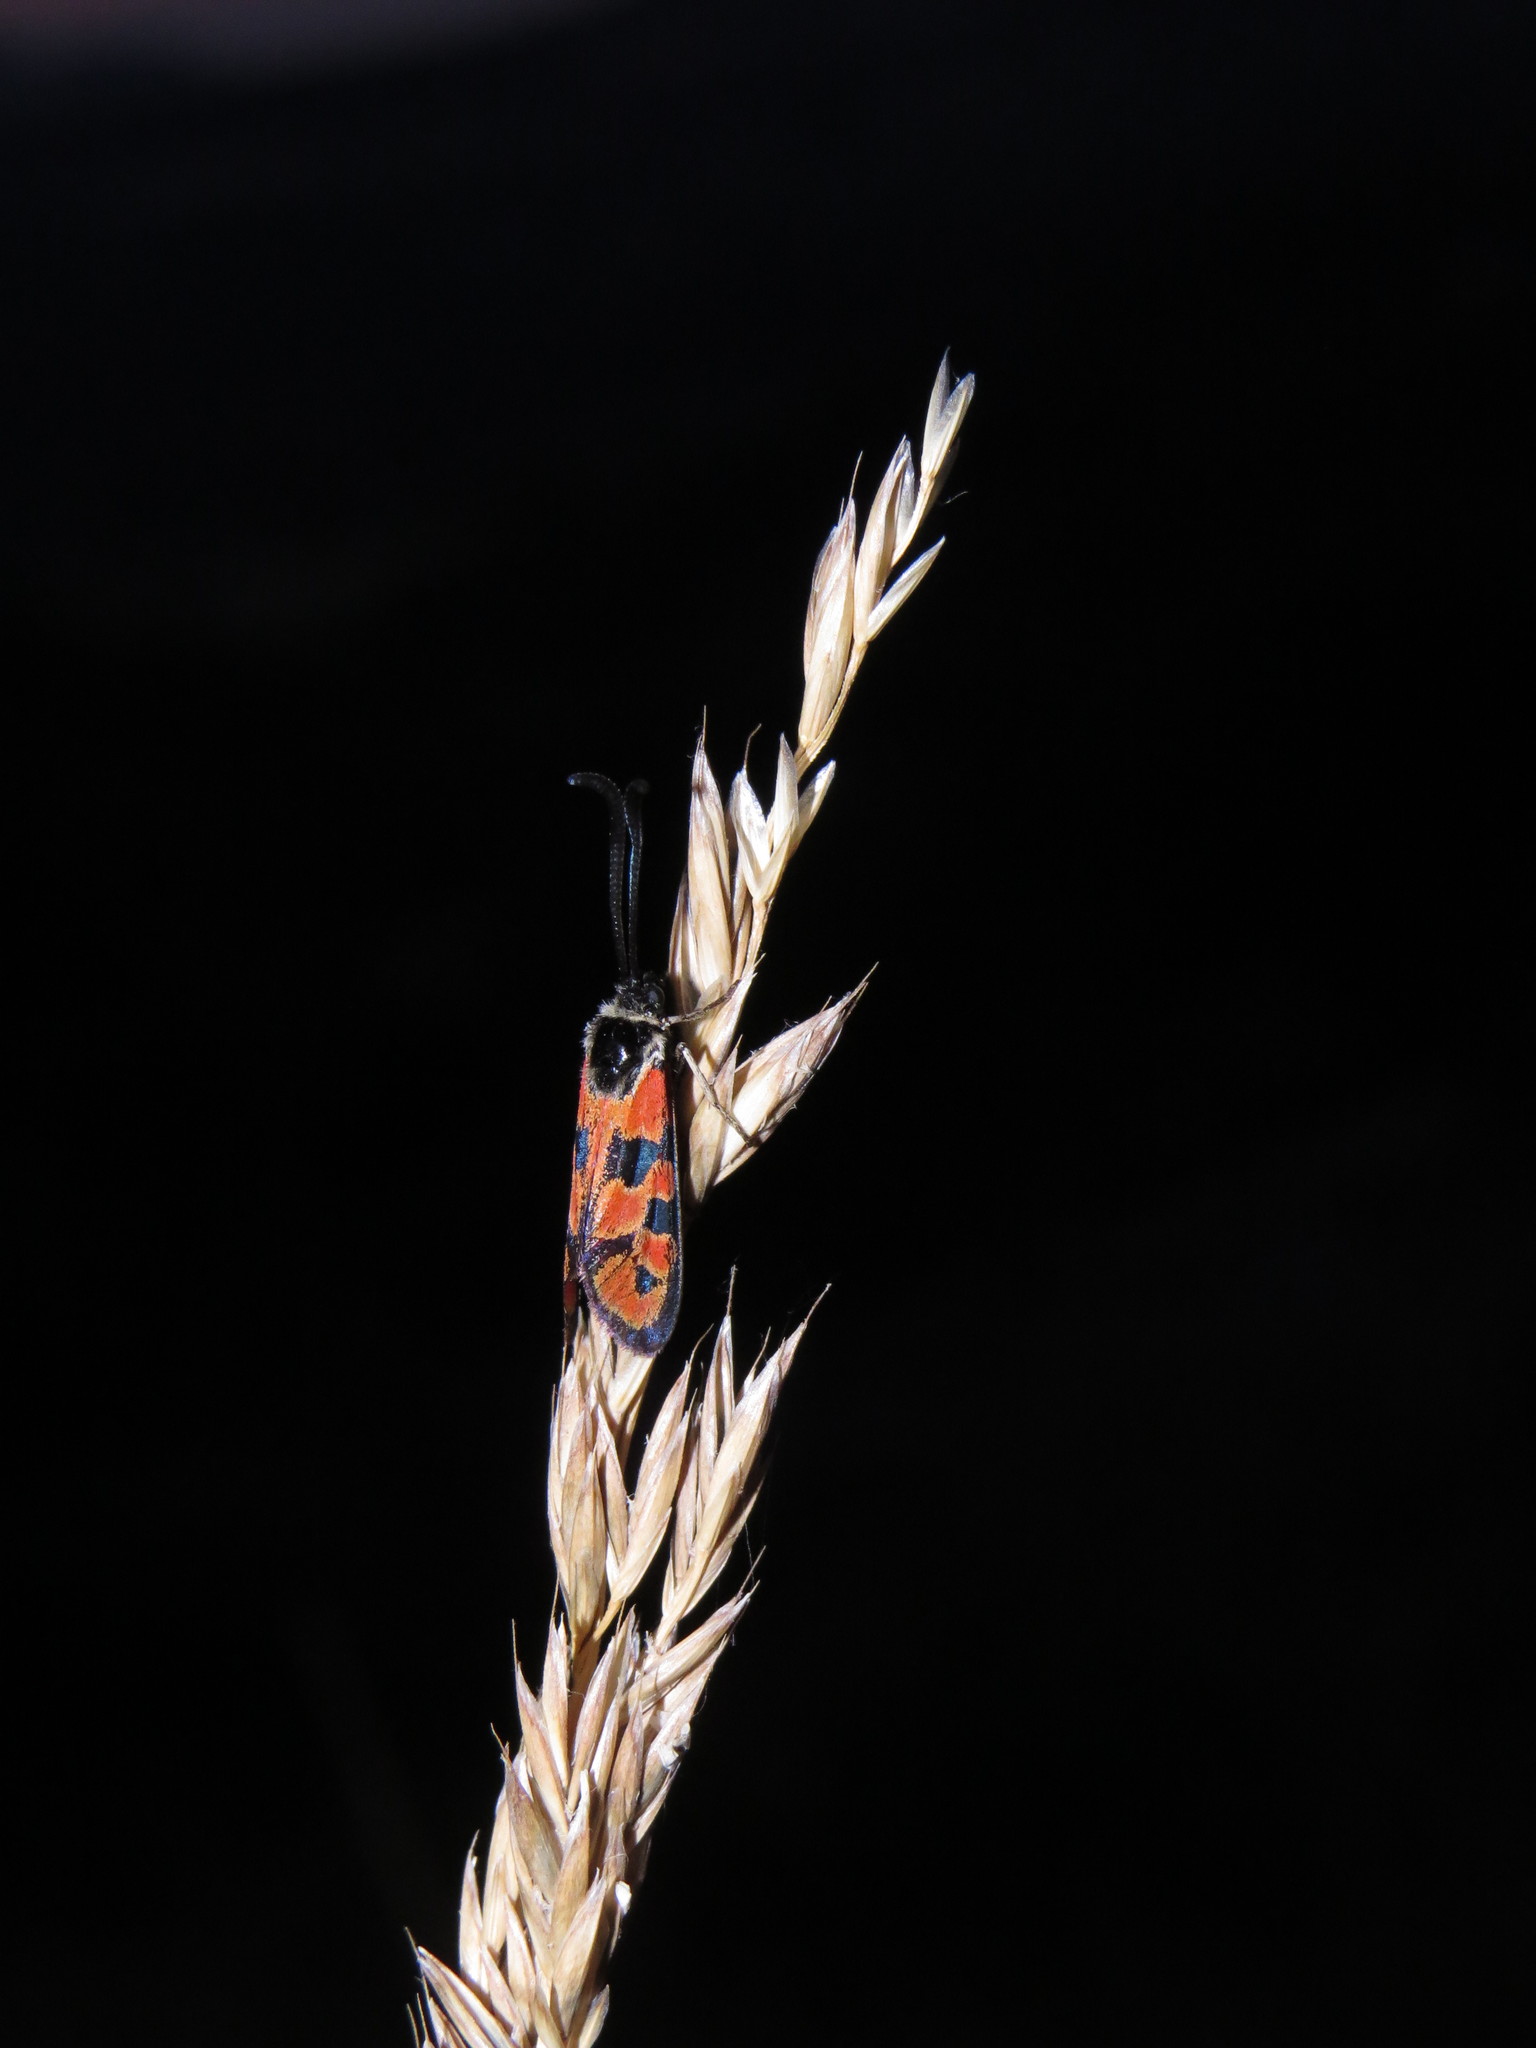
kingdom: Animalia
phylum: Arthropoda
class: Insecta
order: Lepidoptera
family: Zygaenidae
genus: Zygaena
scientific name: Zygaena hilaris
